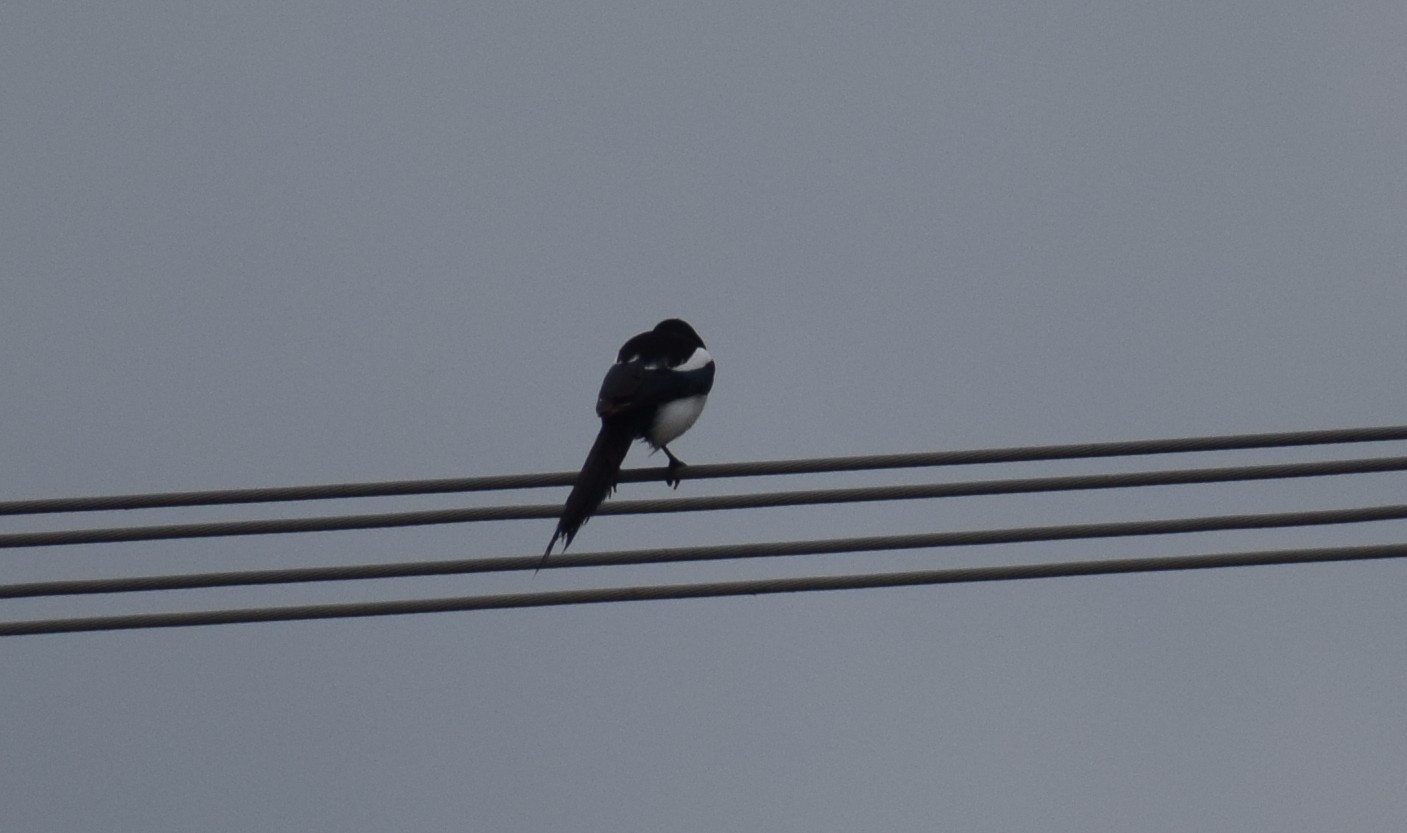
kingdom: Animalia
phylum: Chordata
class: Aves
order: Passeriformes
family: Corvidae
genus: Pica
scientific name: Pica pica
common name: Eurasian magpie
